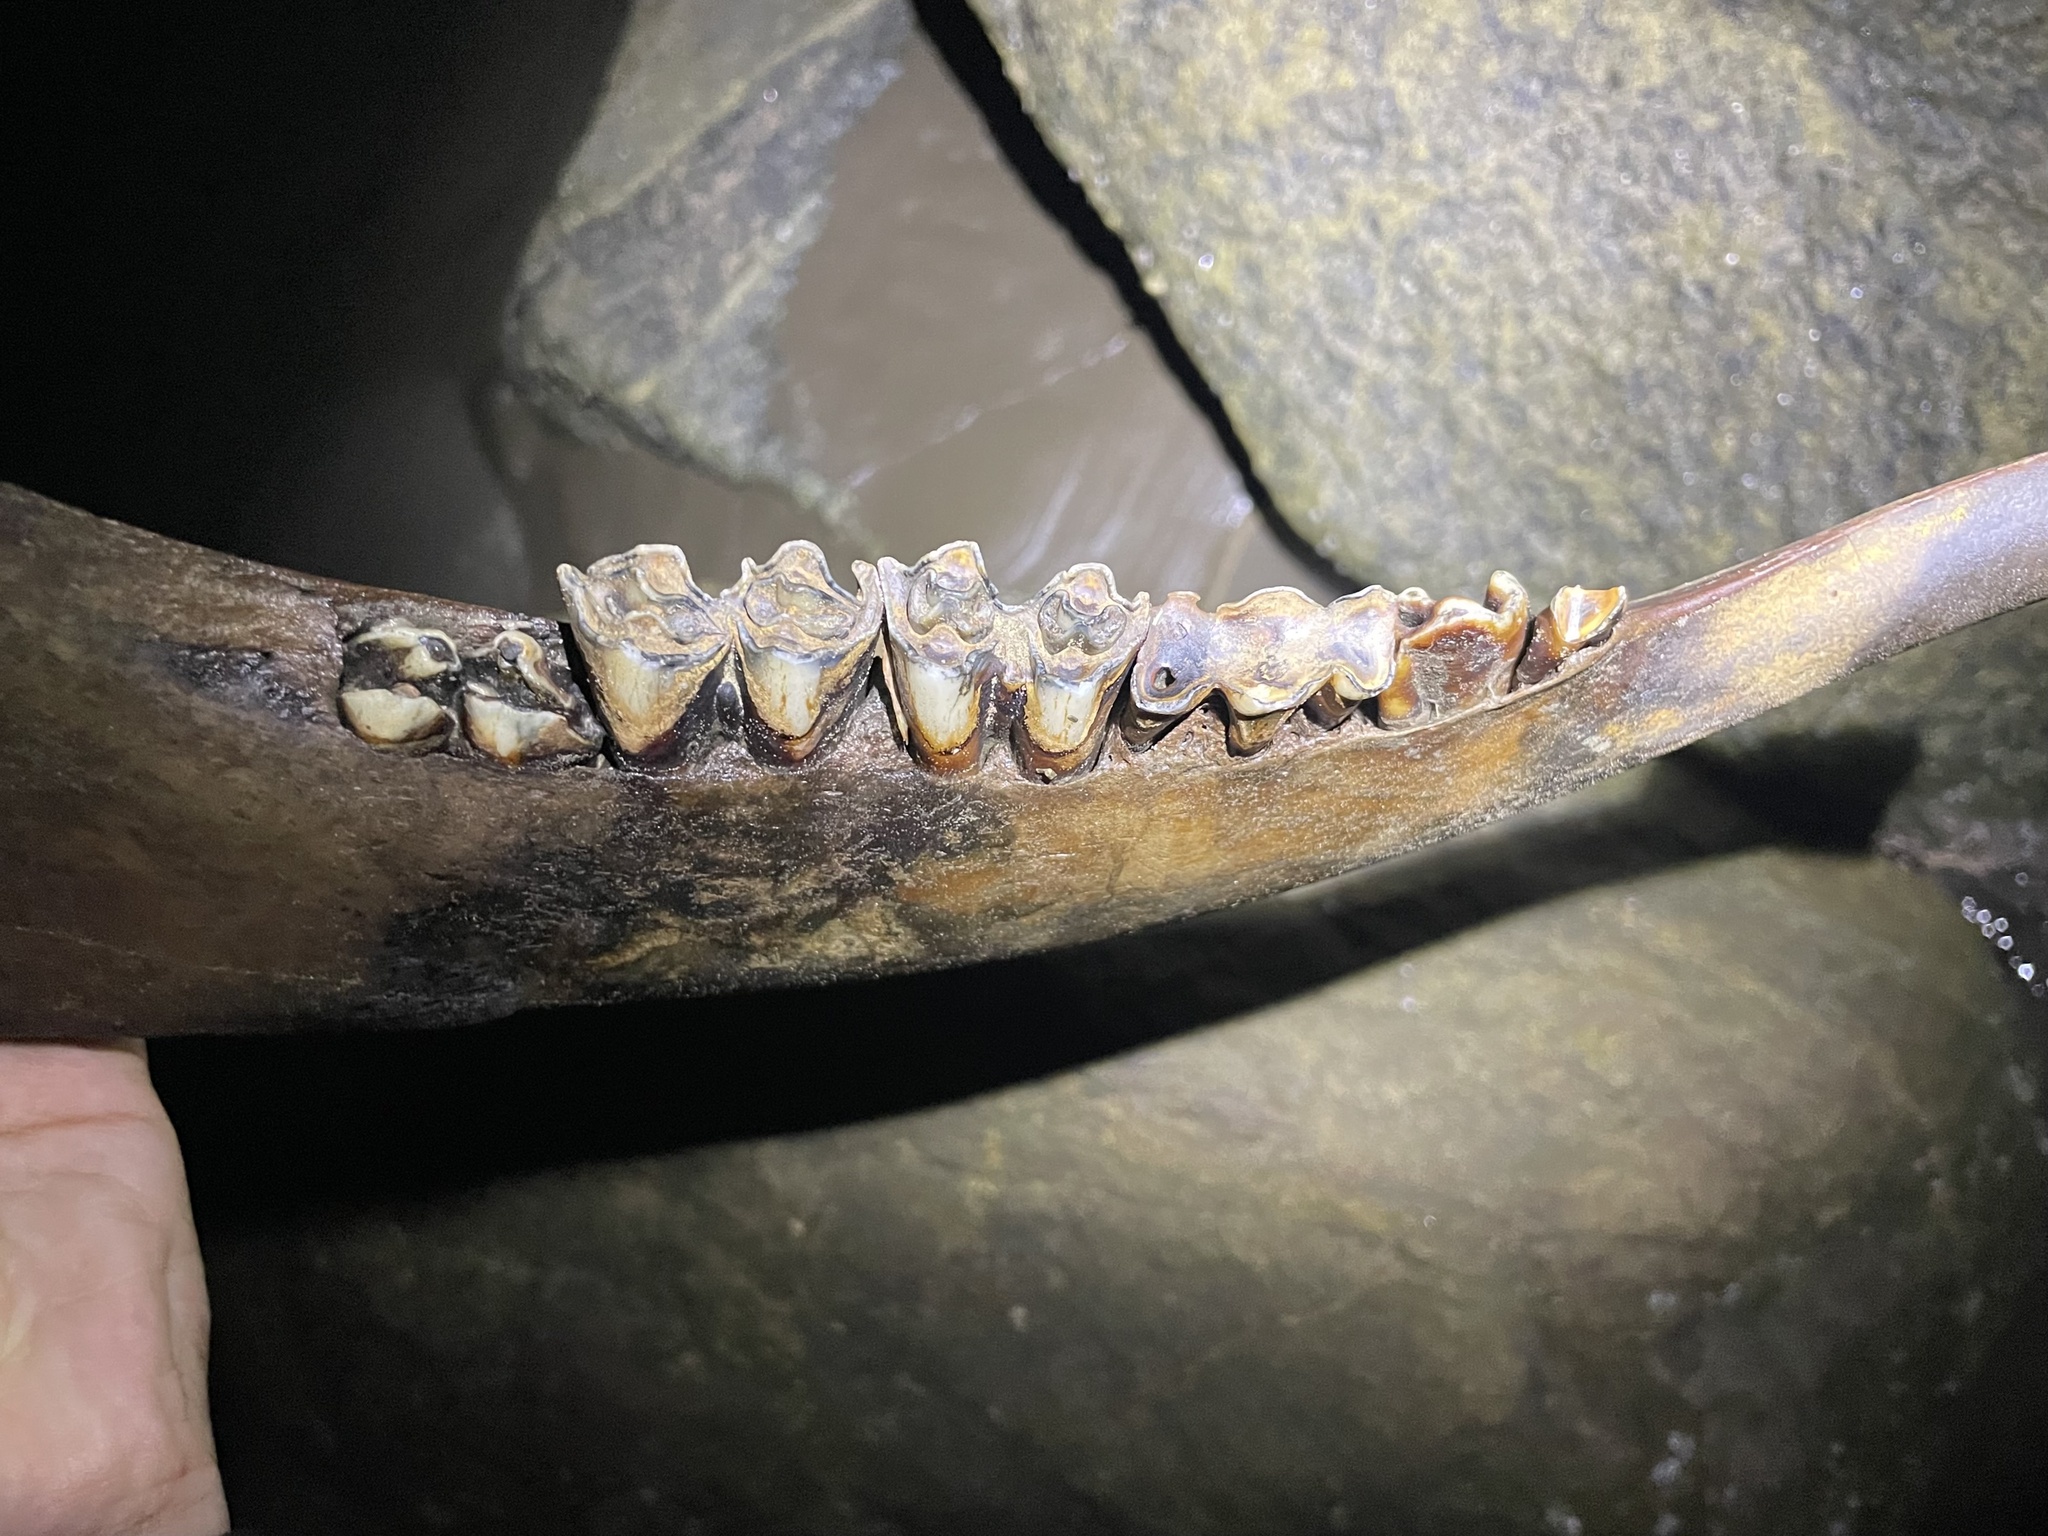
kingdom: Animalia
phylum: Chordata
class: Mammalia
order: Artiodactyla
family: Bovidae
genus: Bos
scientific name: Bos taurus
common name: Domesticated cattle
